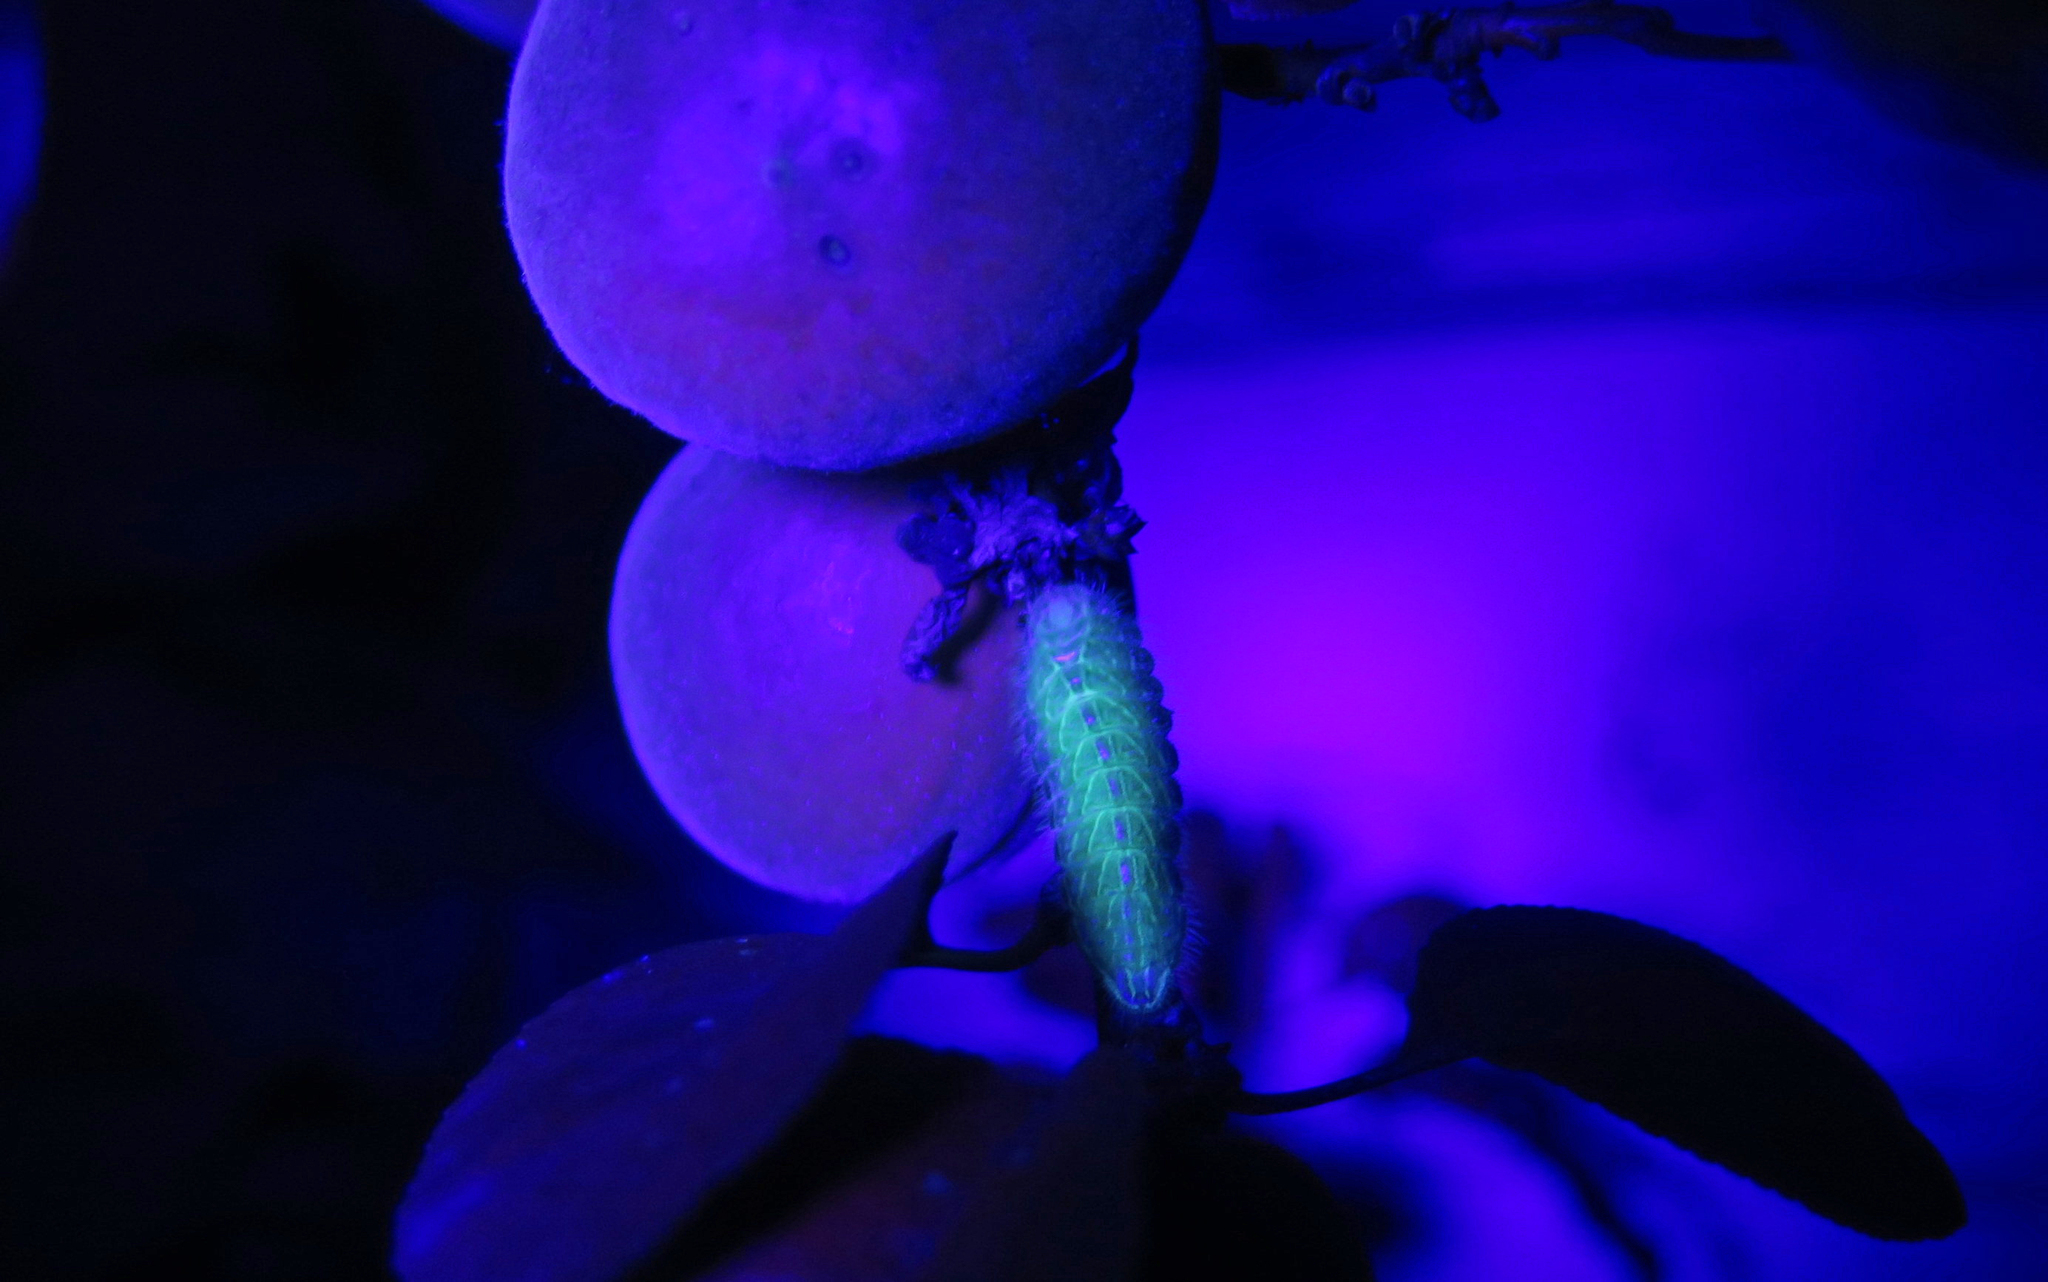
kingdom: Animalia
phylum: Arthropoda
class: Insecta
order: Lepidoptera
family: Lycaenidae
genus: Thecla
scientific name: Thecla betulae
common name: Brown hairstreak
